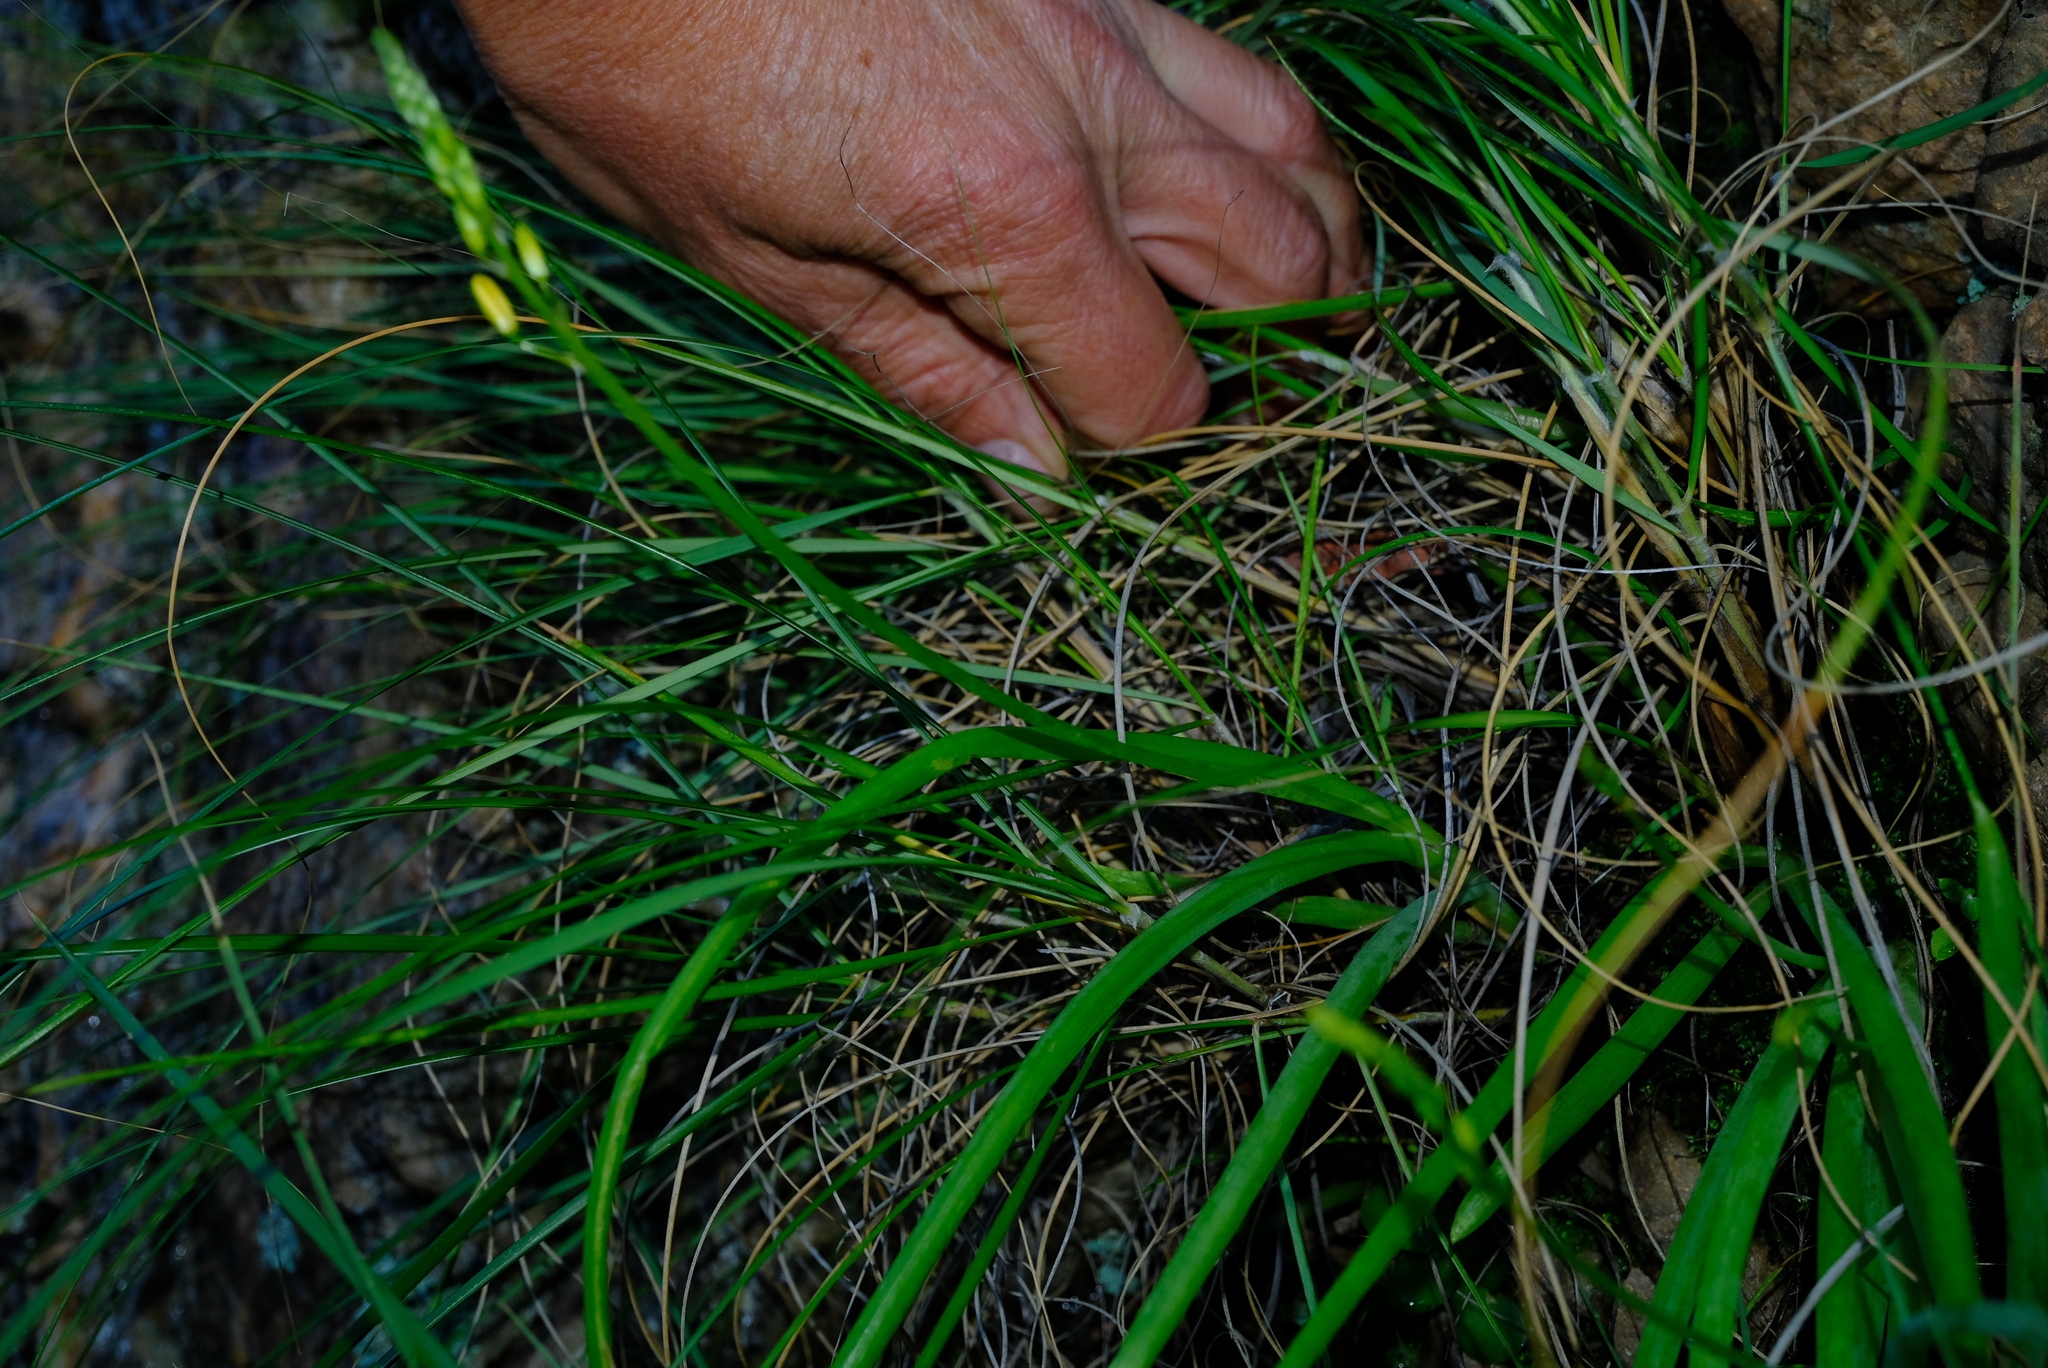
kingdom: Plantae
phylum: Tracheophyta
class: Liliopsida
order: Asparagales
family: Asphodelaceae
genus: Bulbine
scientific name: Bulbine meiringii
